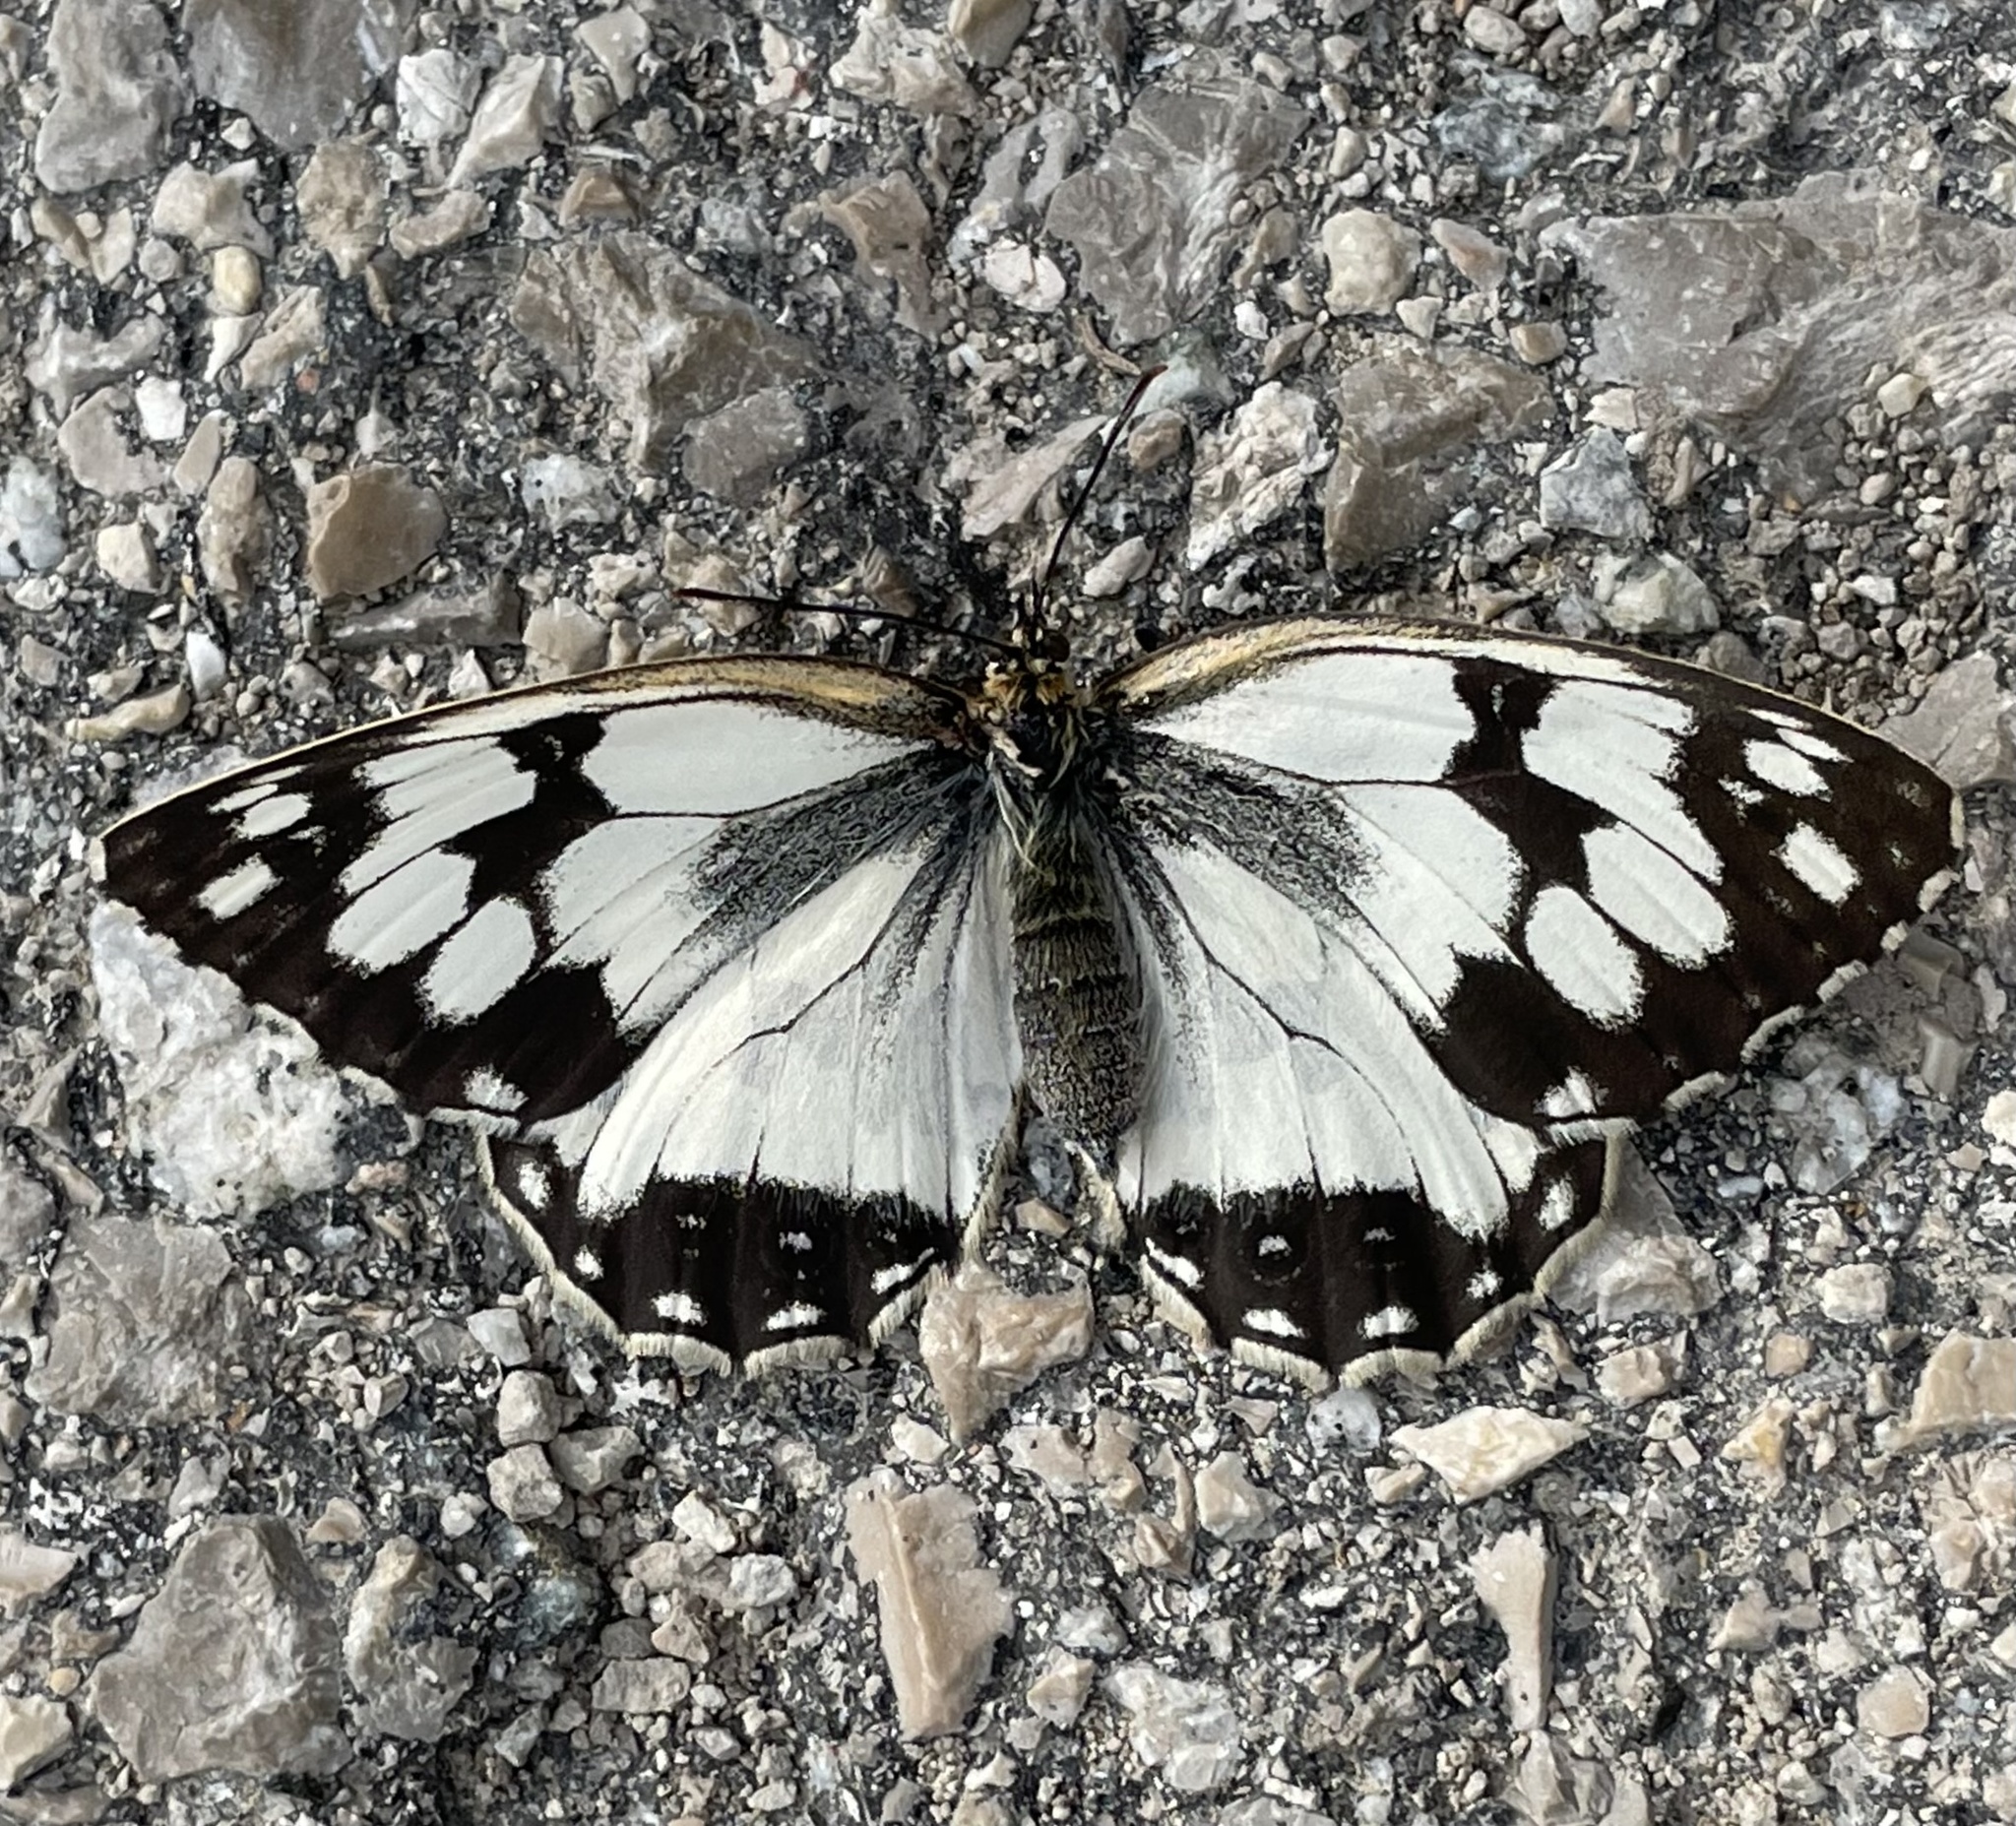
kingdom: Animalia
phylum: Arthropoda
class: Insecta
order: Lepidoptera
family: Nymphalidae
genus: Melanargia
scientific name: Melanargia lachesis
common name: Iberian marbled white
